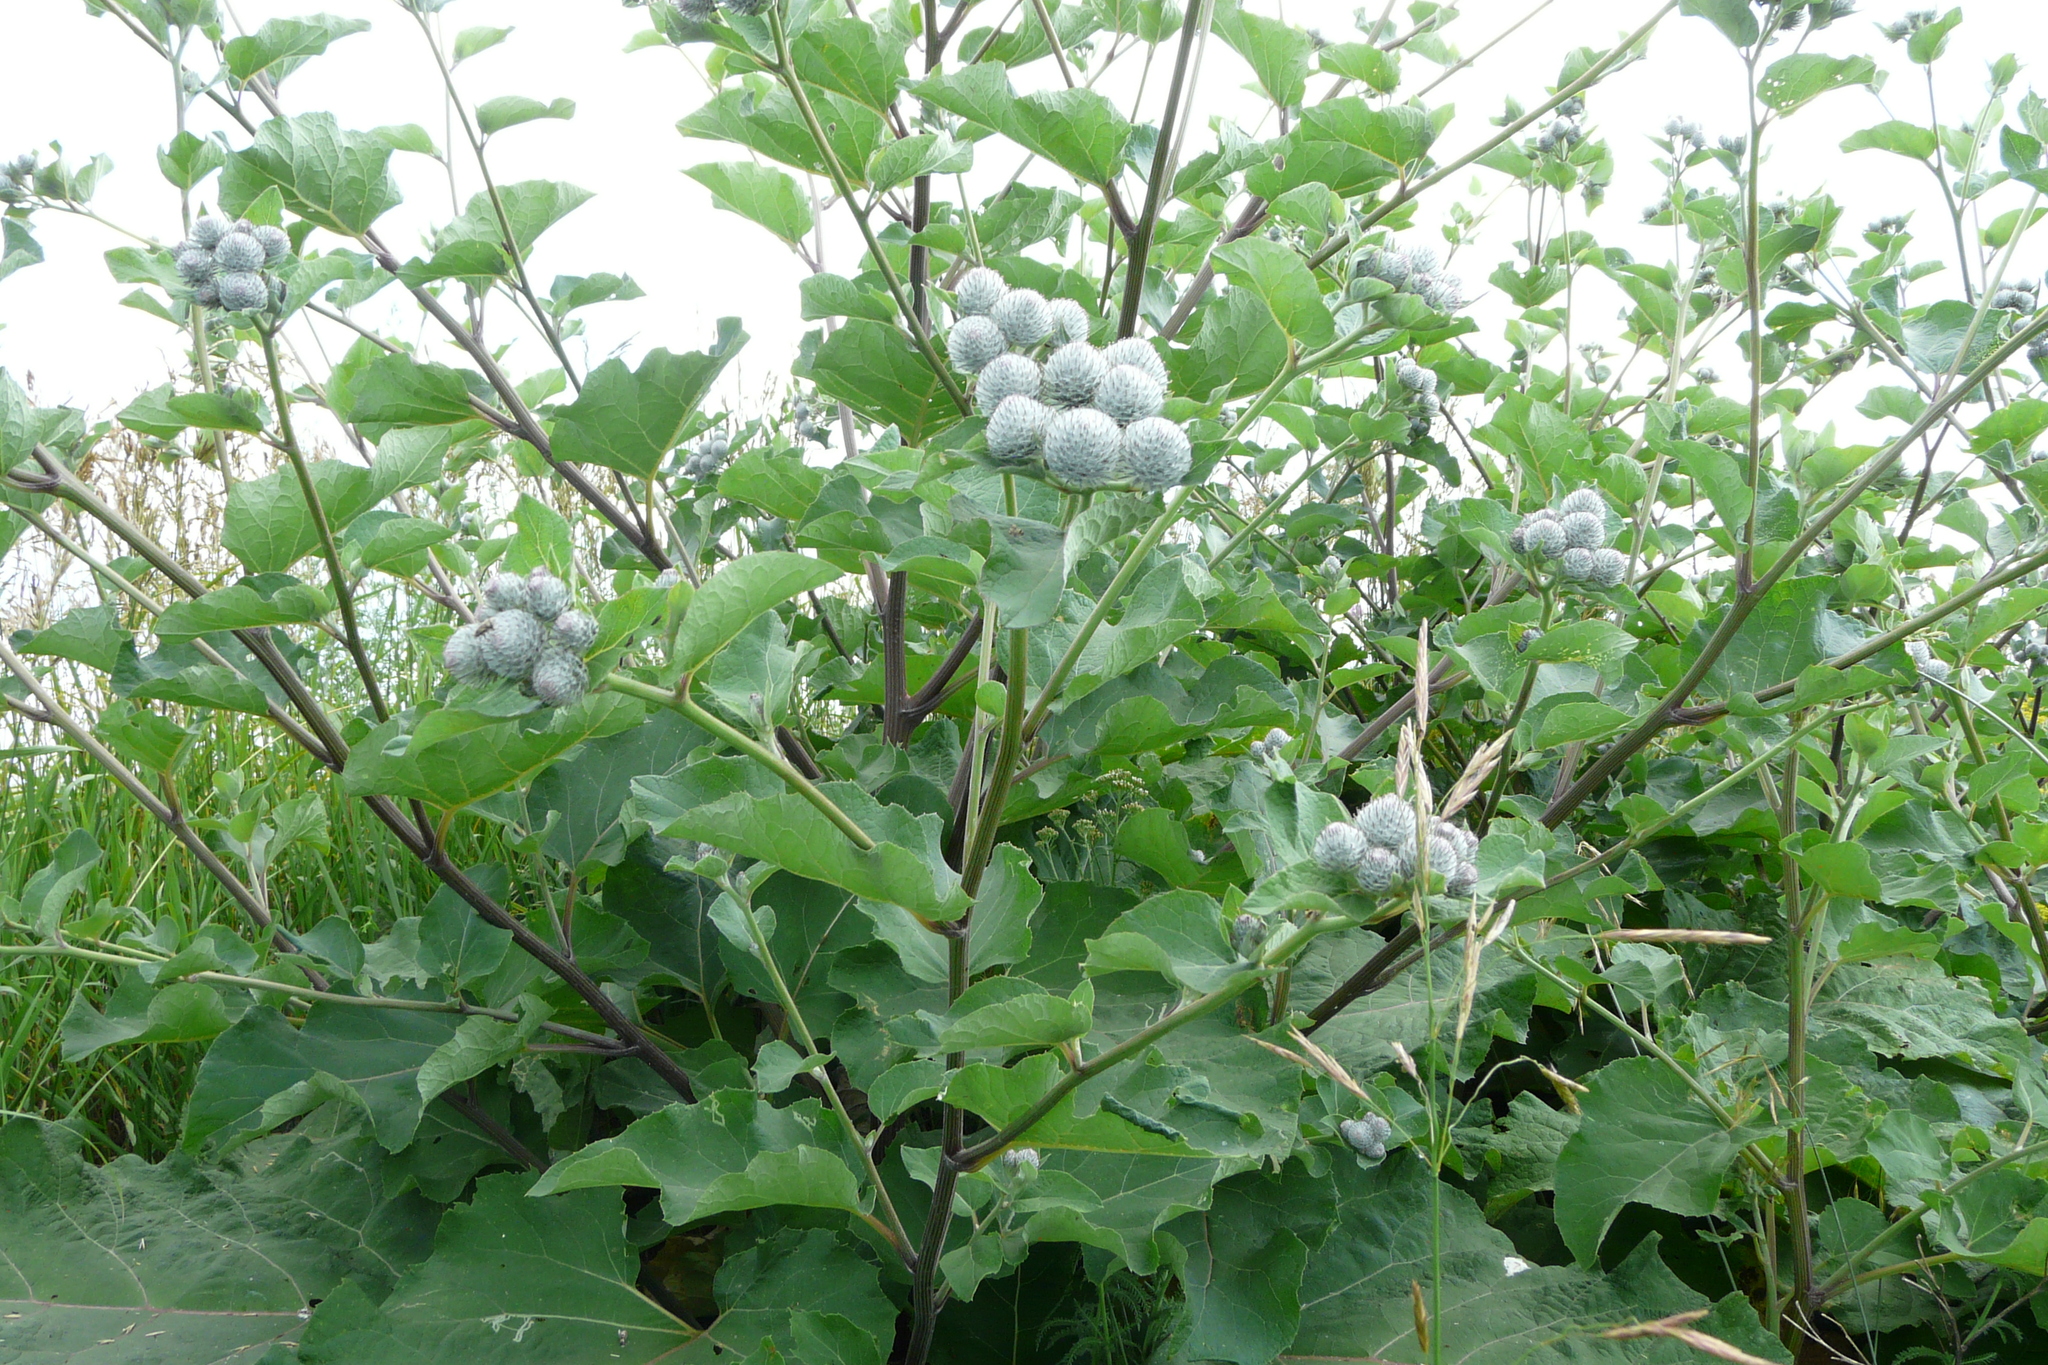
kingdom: Plantae
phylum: Tracheophyta
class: Magnoliopsida
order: Asterales
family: Asteraceae
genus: Arctium
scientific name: Arctium tomentosum
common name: Woolly burdock
